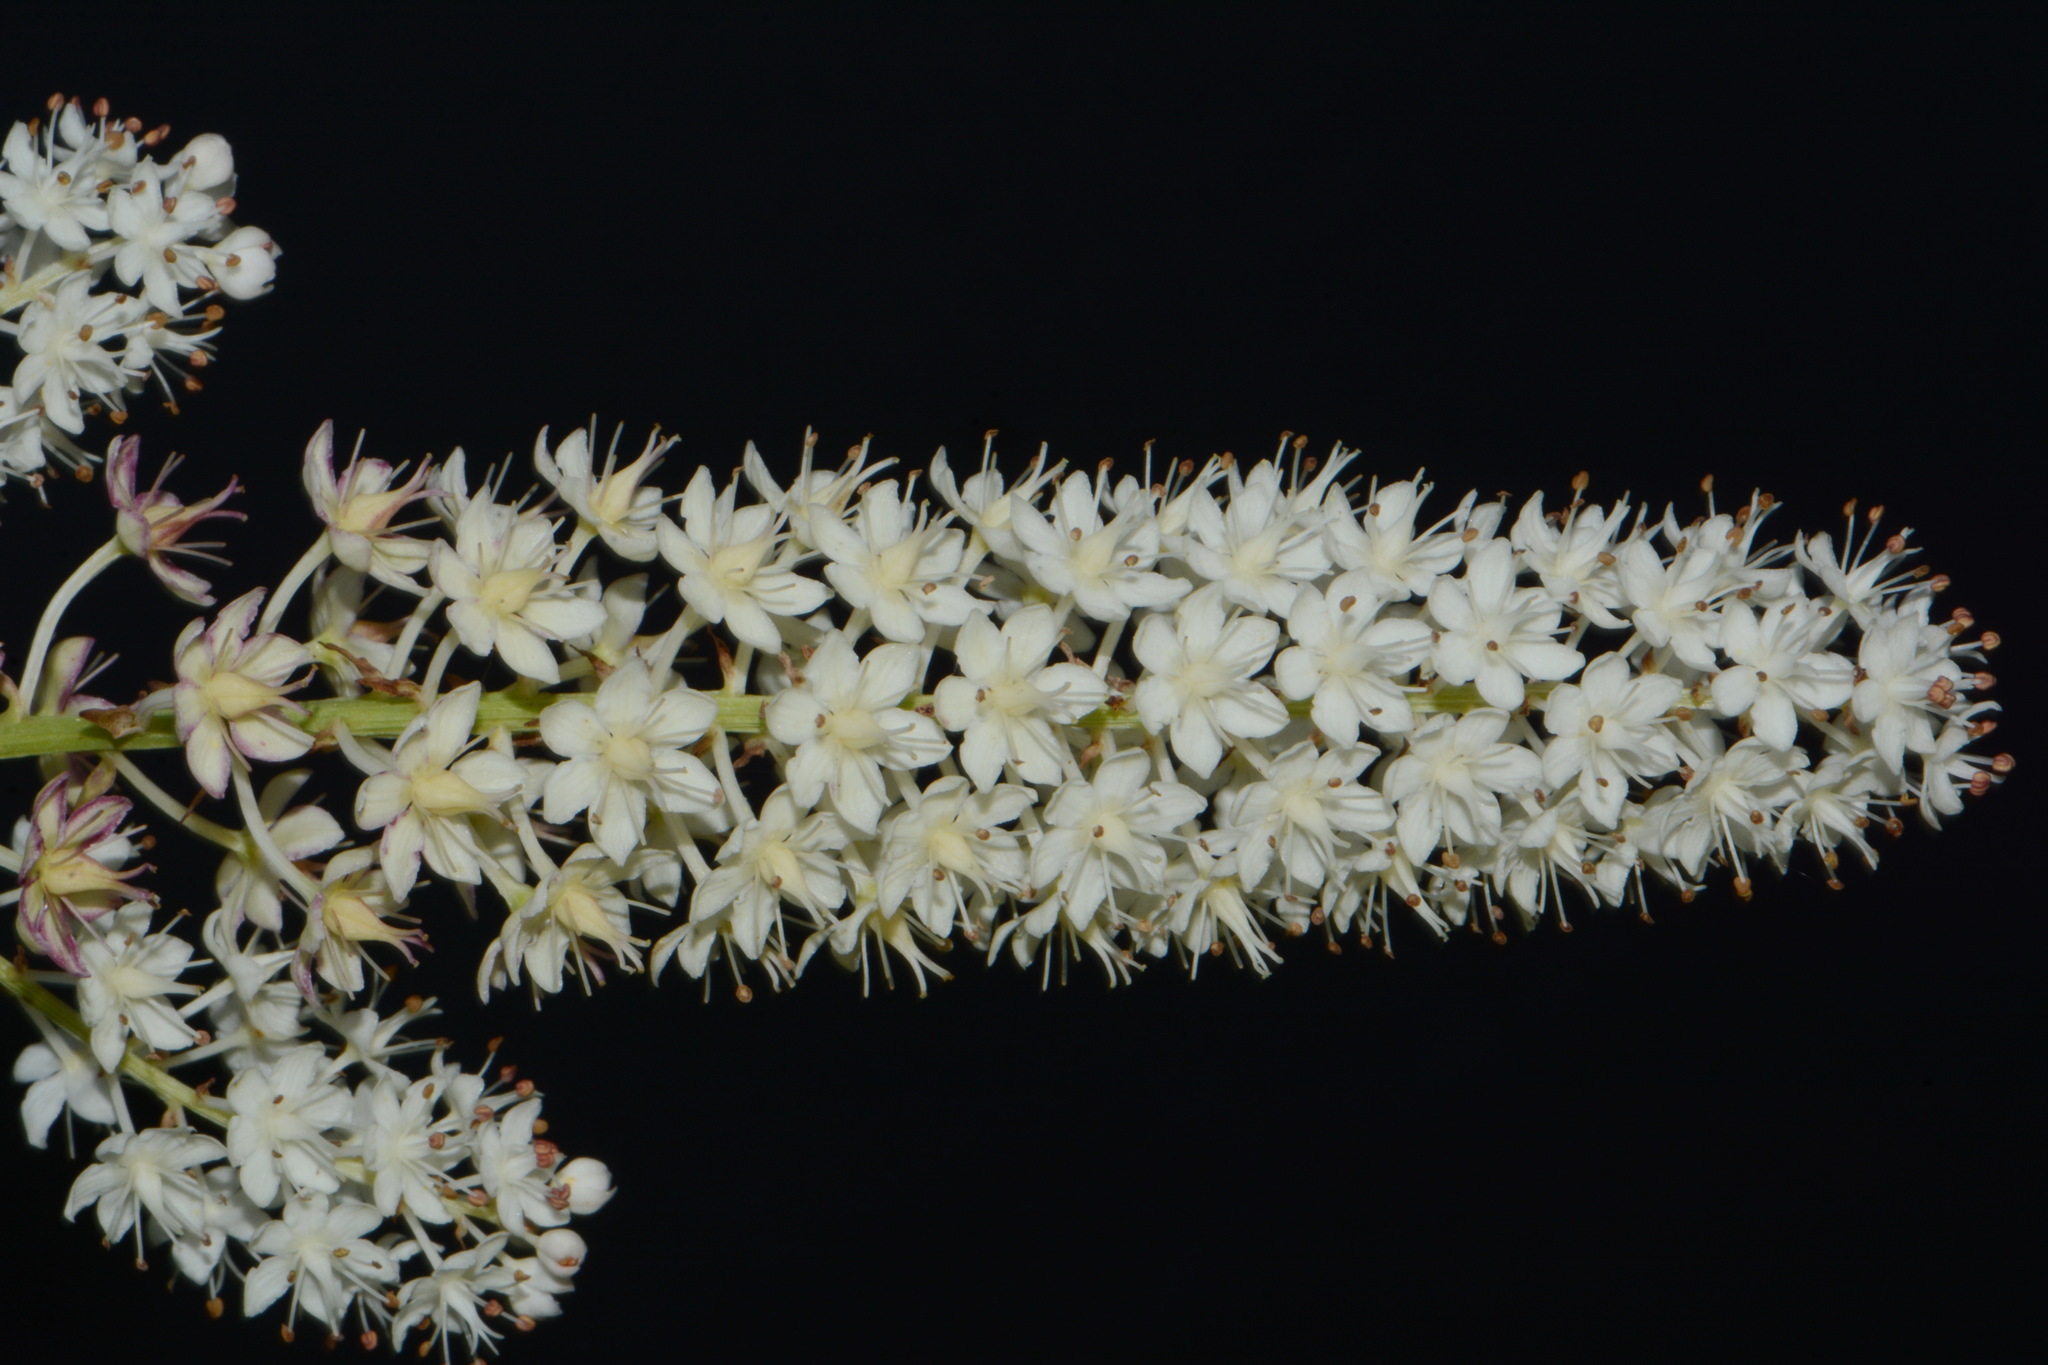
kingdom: Plantae
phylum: Tracheophyta
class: Liliopsida
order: Liliales
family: Melanthiaceae
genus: Stenanthium
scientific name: Stenanthium tennesseense
